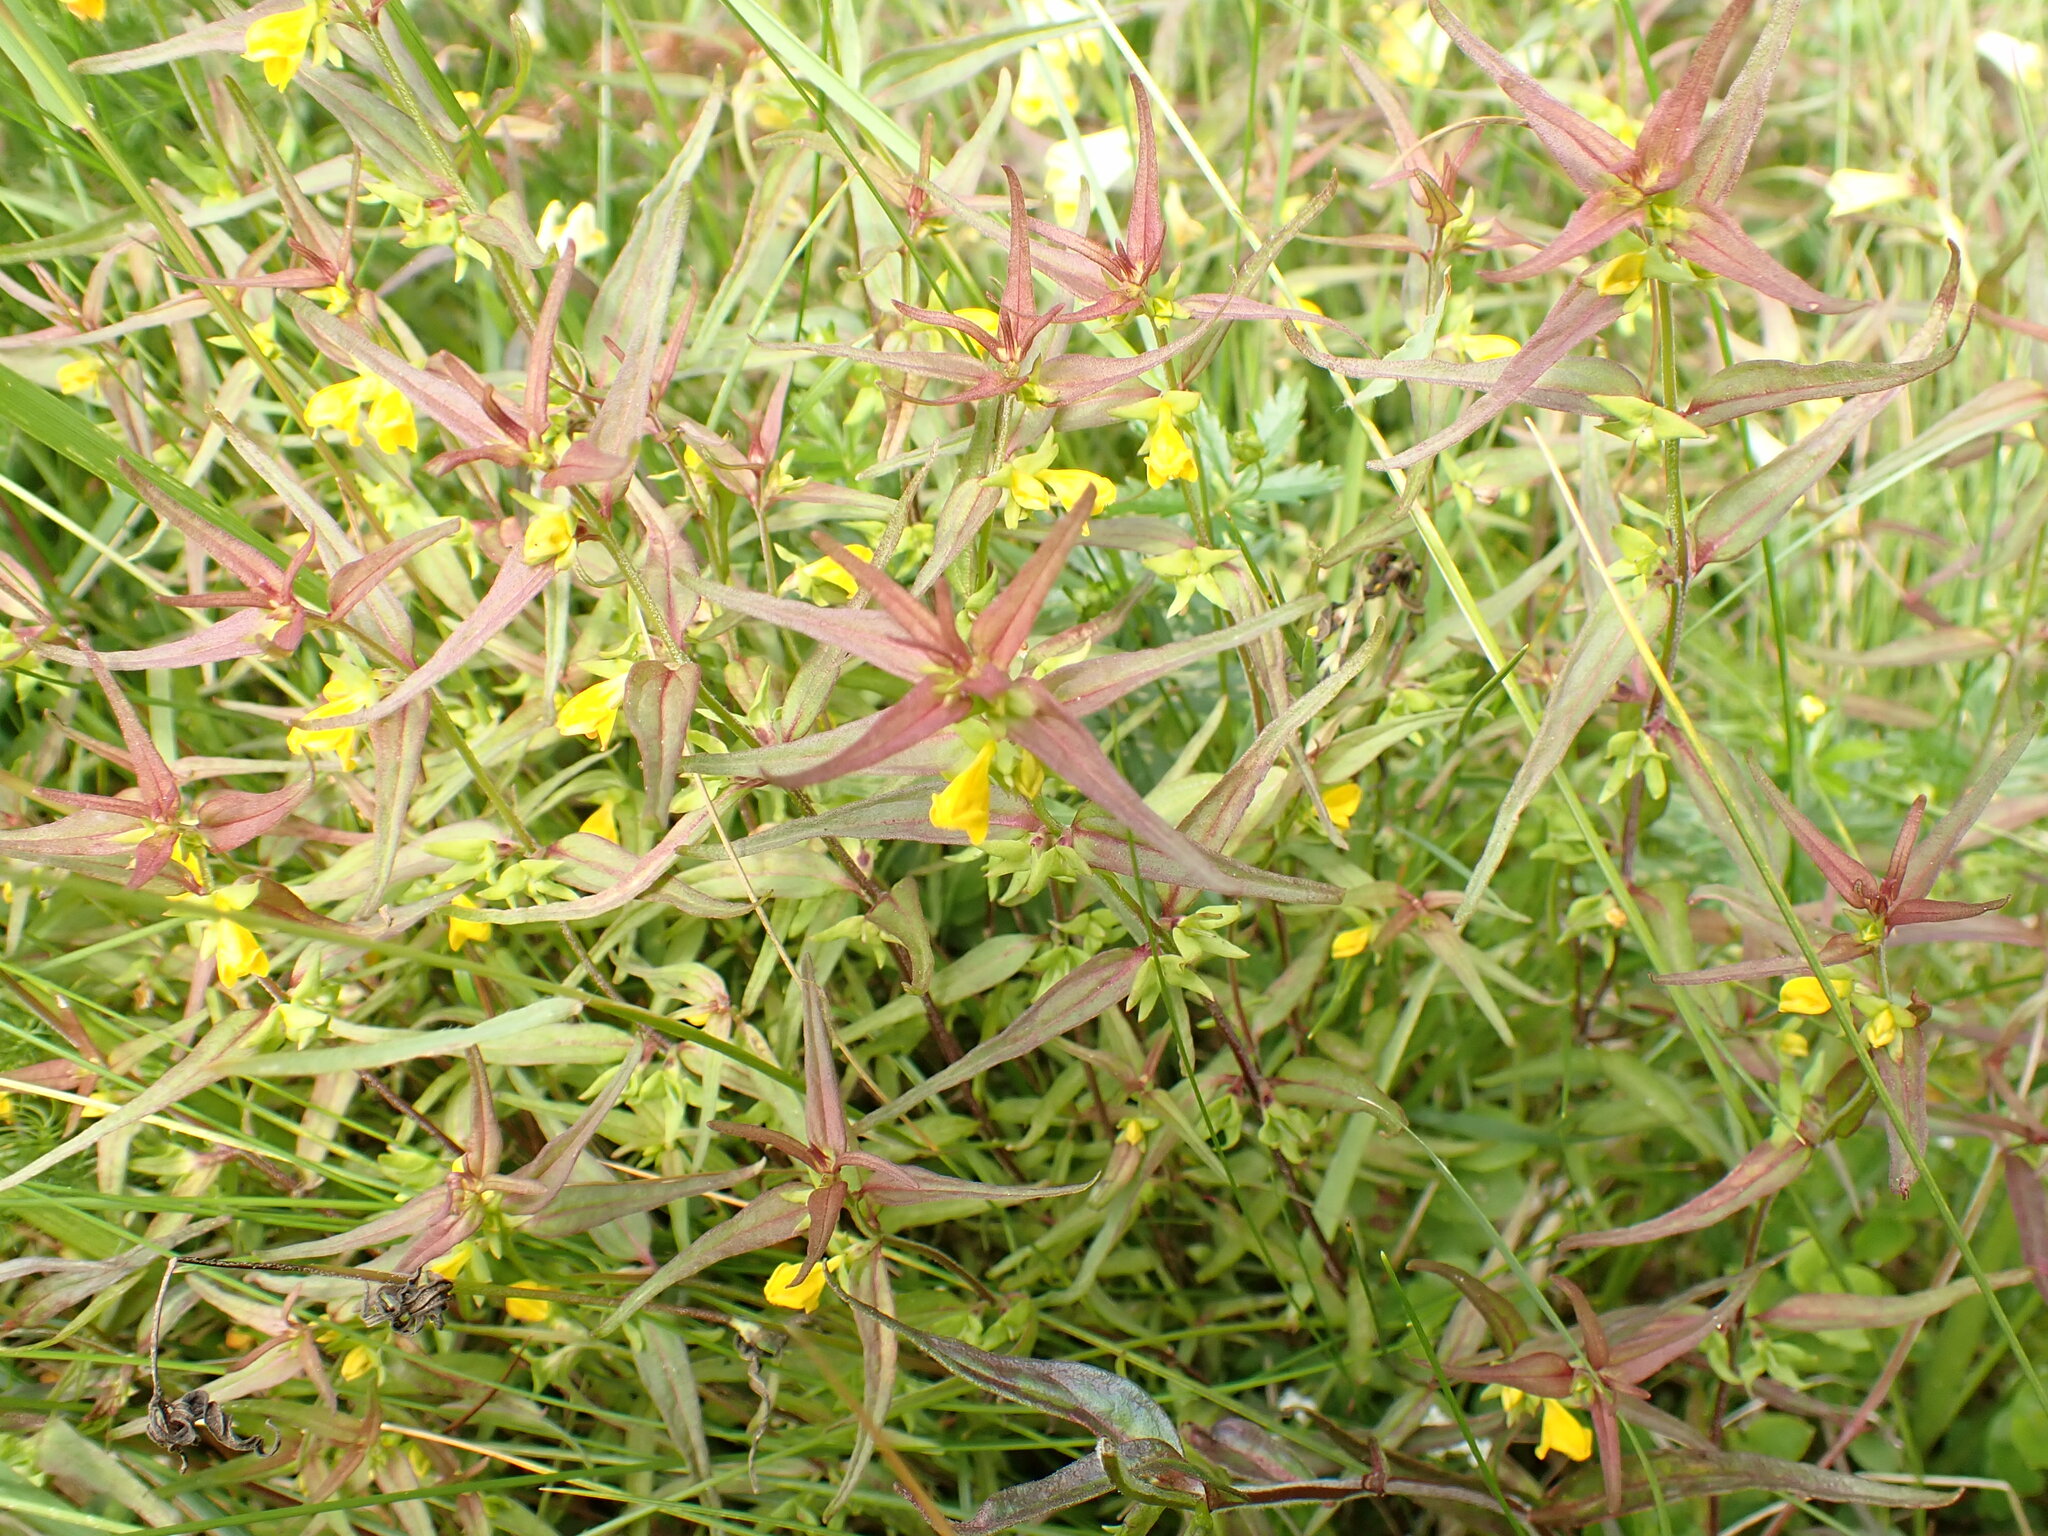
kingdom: Plantae
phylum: Tracheophyta
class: Magnoliopsida
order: Lamiales
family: Orobanchaceae
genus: Melampyrum
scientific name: Melampyrum sylvaticum
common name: Small cow-wheat
